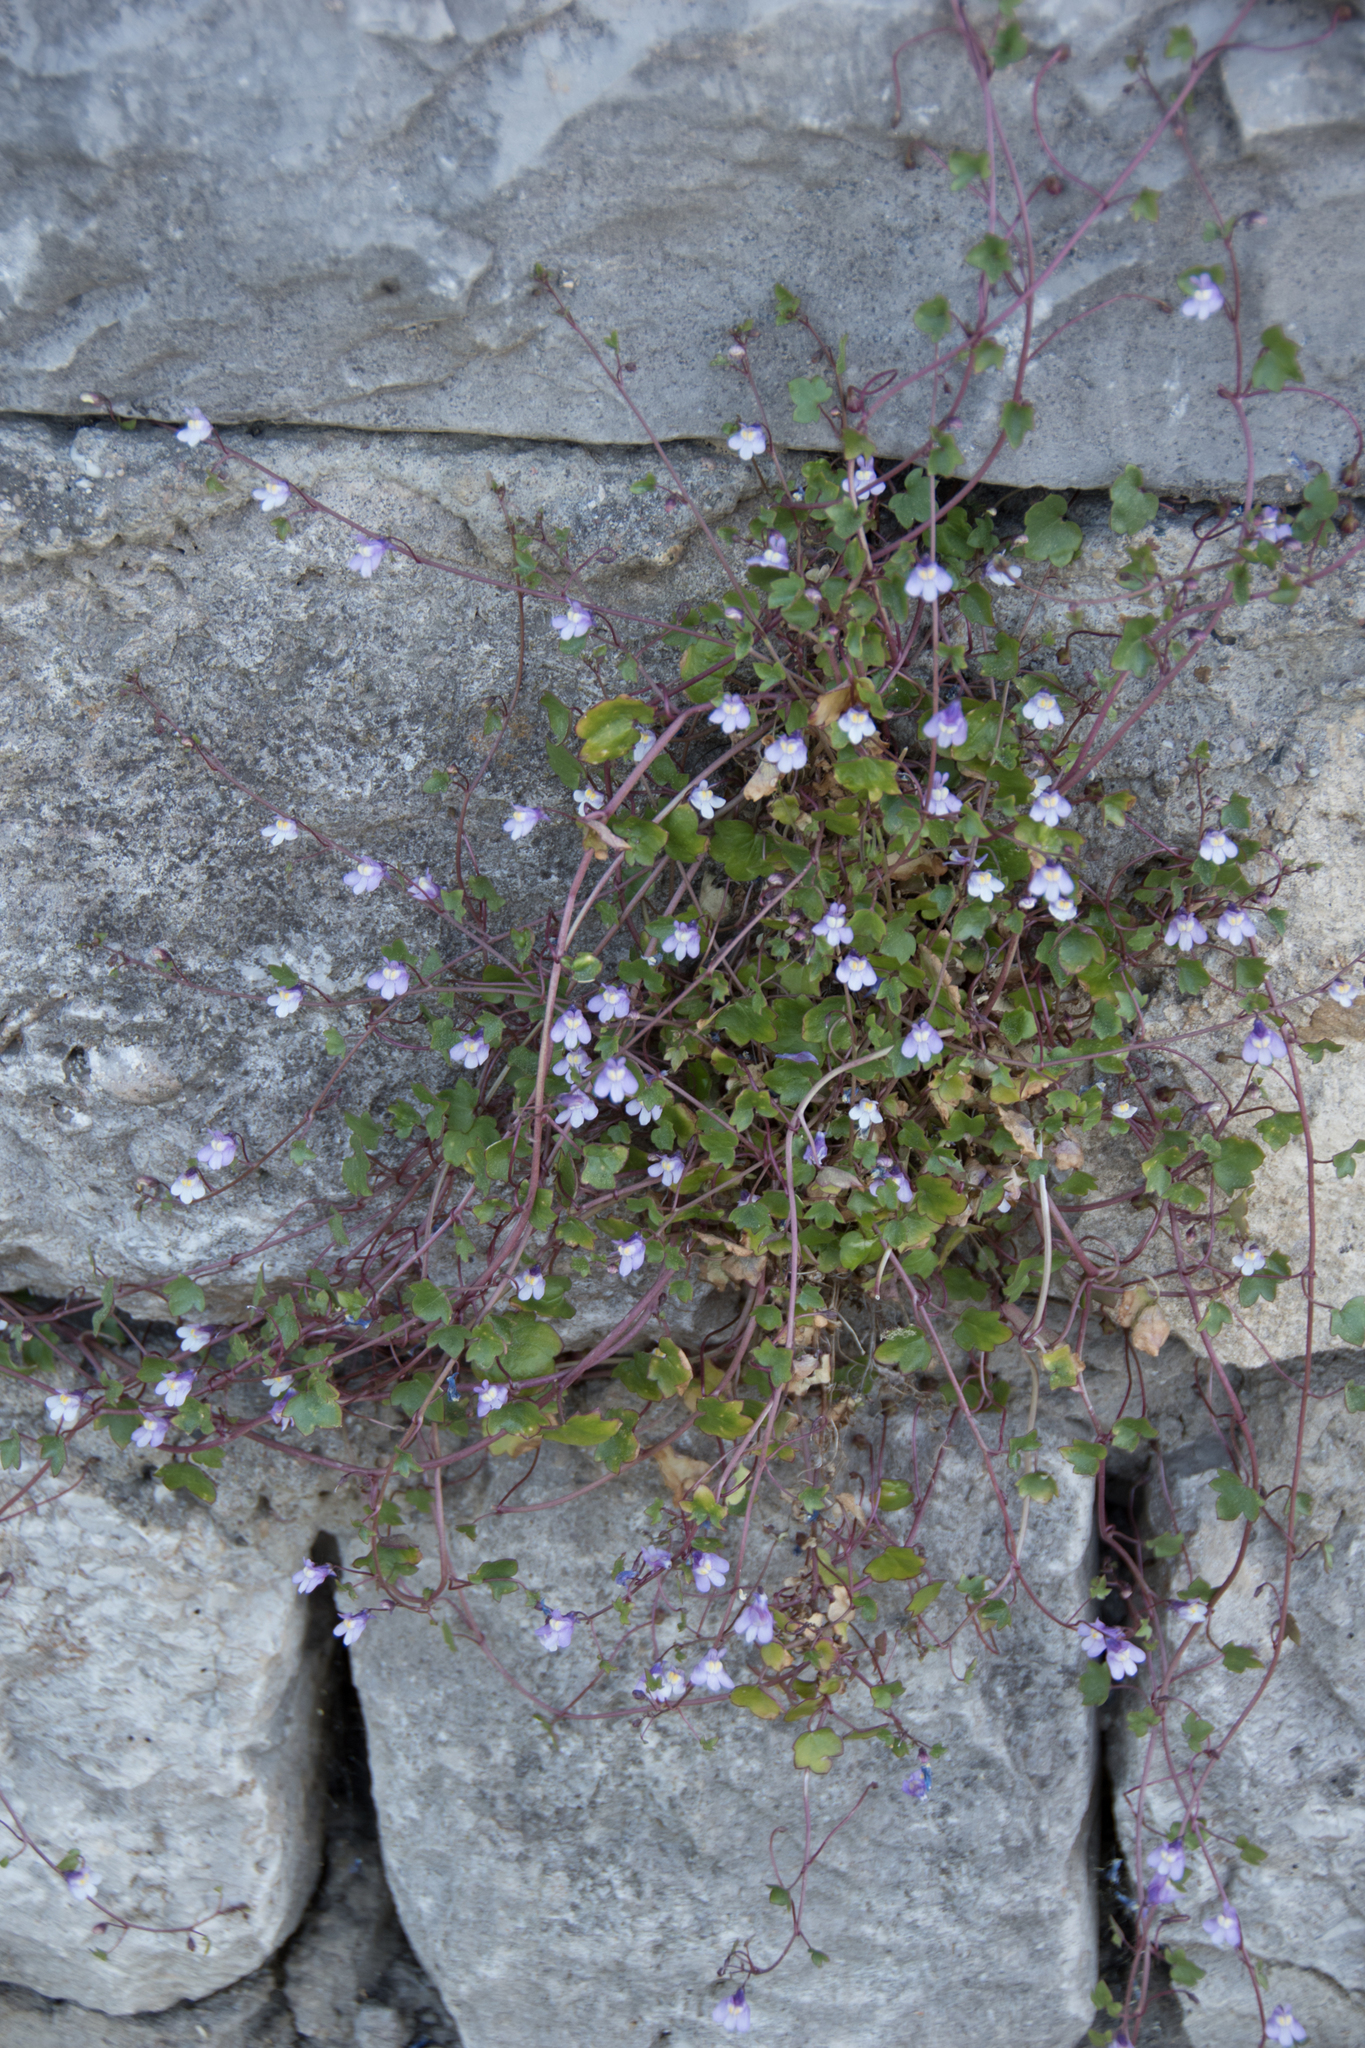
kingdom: Plantae
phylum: Tracheophyta
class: Magnoliopsida
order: Lamiales
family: Plantaginaceae
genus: Cymbalaria
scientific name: Cymbalaria muralis
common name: Ivy-leaved toadflax
